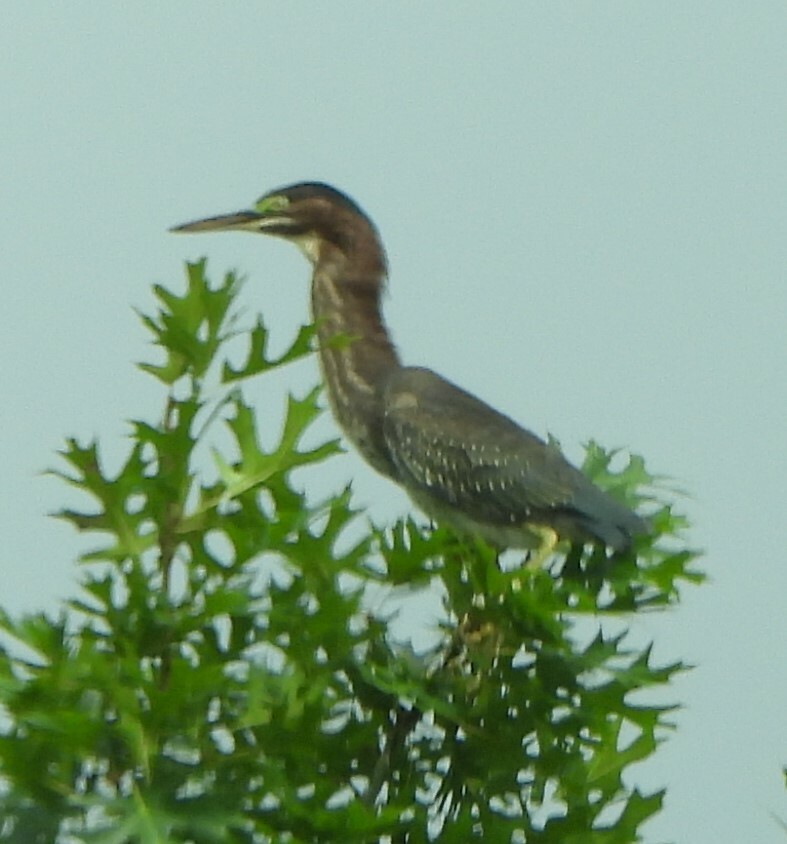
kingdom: Animalia
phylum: Chordata
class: Aves
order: Pelecaniformes
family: Ardeidae
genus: Butorides
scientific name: Butorides virescens
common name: Green heron
